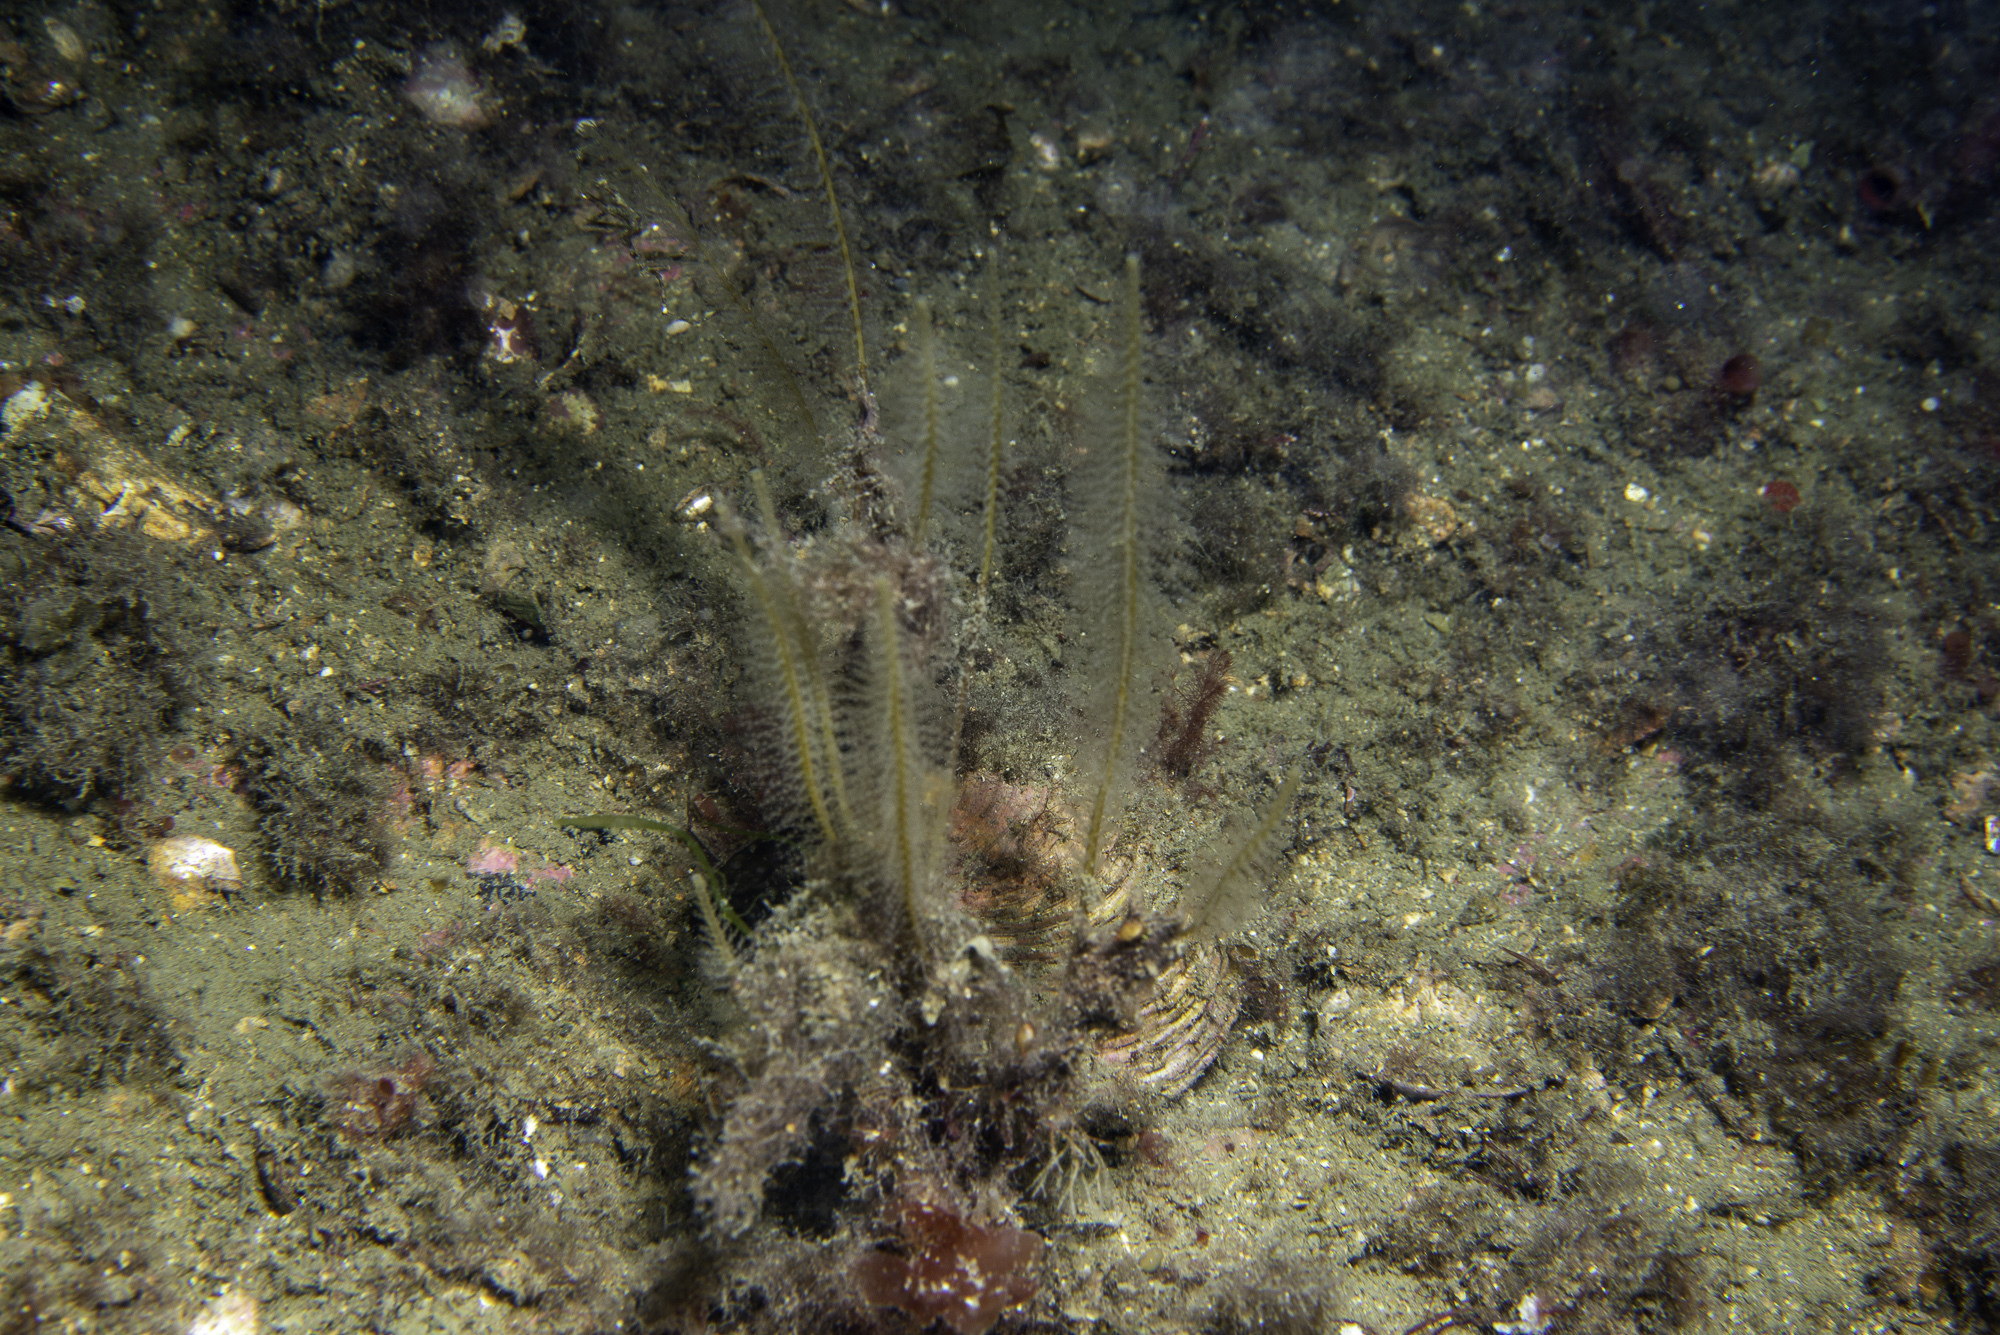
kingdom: Animalia
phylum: Cnidaria
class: Hydrozoa
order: Leptothecata
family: Plumulariidae
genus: Nemertesia
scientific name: Nemertesia antennina
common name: Sea beard
